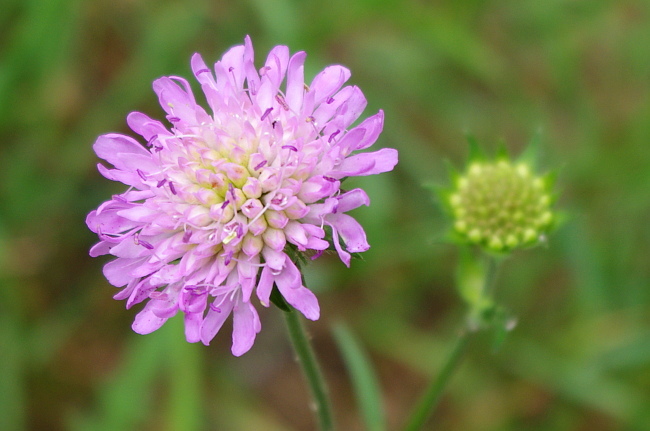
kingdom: Plantae
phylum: Tracheophyta
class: Magnoliopsida
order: Dipsacales
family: Caprifoliaceae
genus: Knautia
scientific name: Knautia arvensis
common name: Field scabiosa
